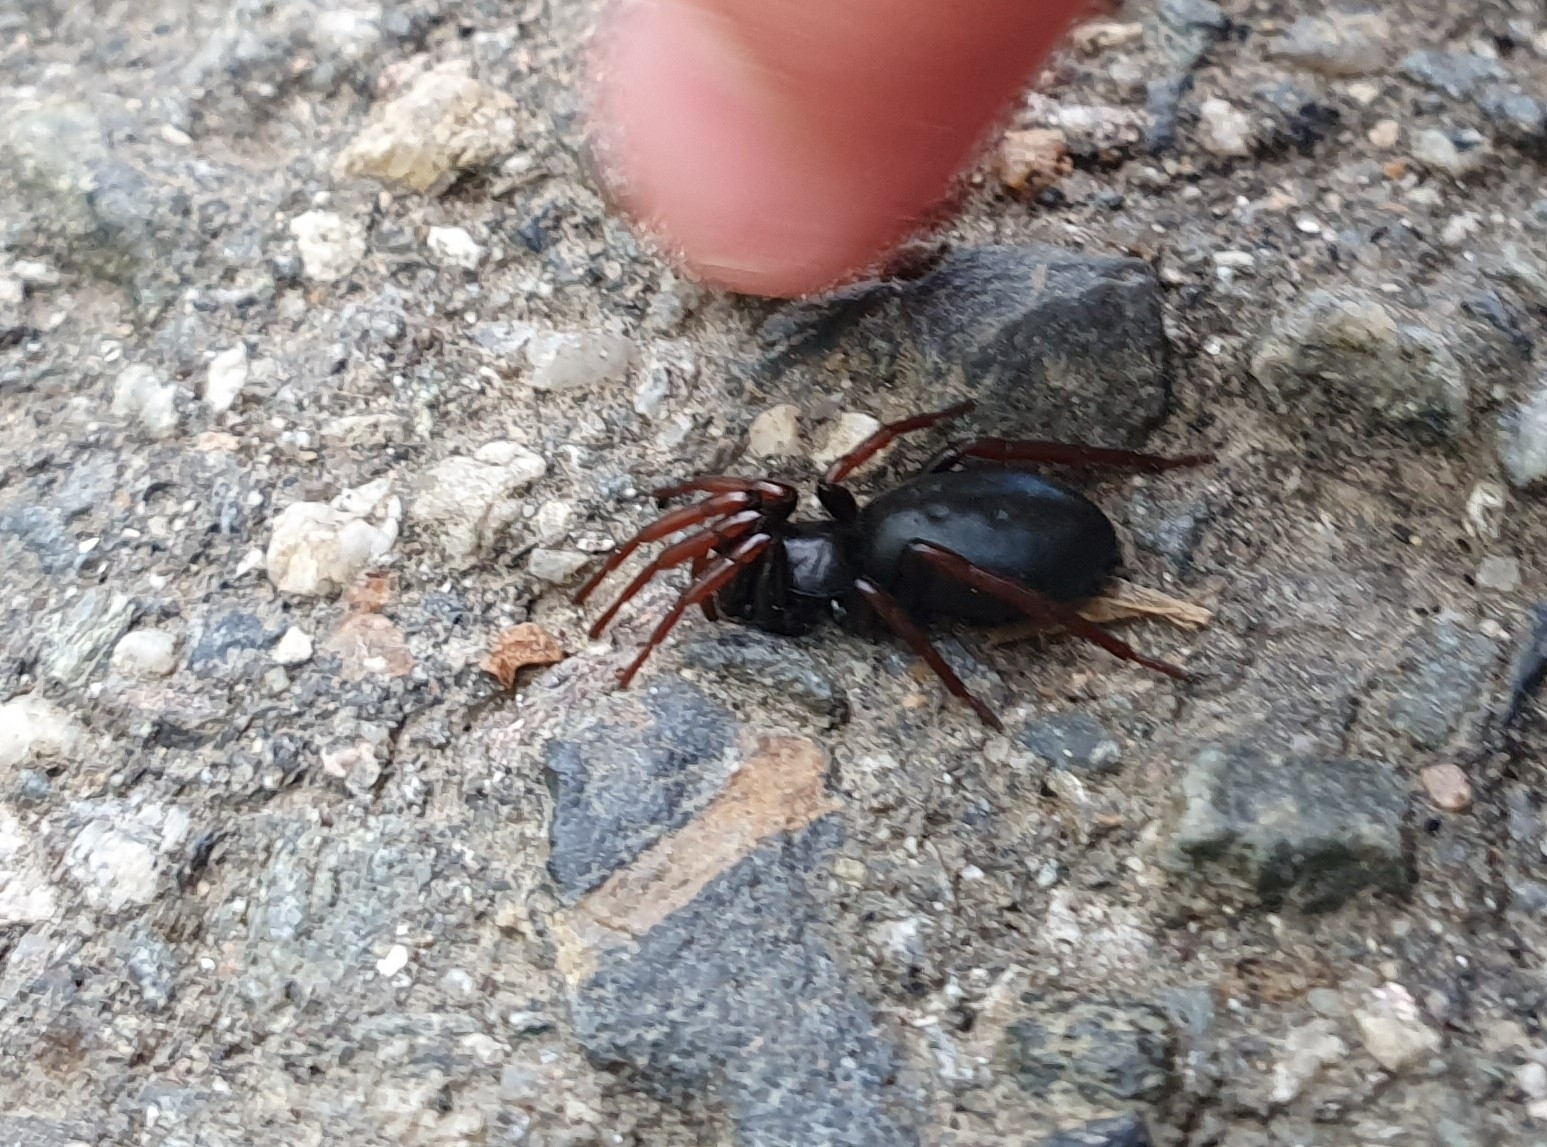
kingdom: Animalia
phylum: Arthropoda
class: Arachnida
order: Araneae
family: Gnaphosidae
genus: Trachyzelotes
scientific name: Trachyzelotes pedestris
